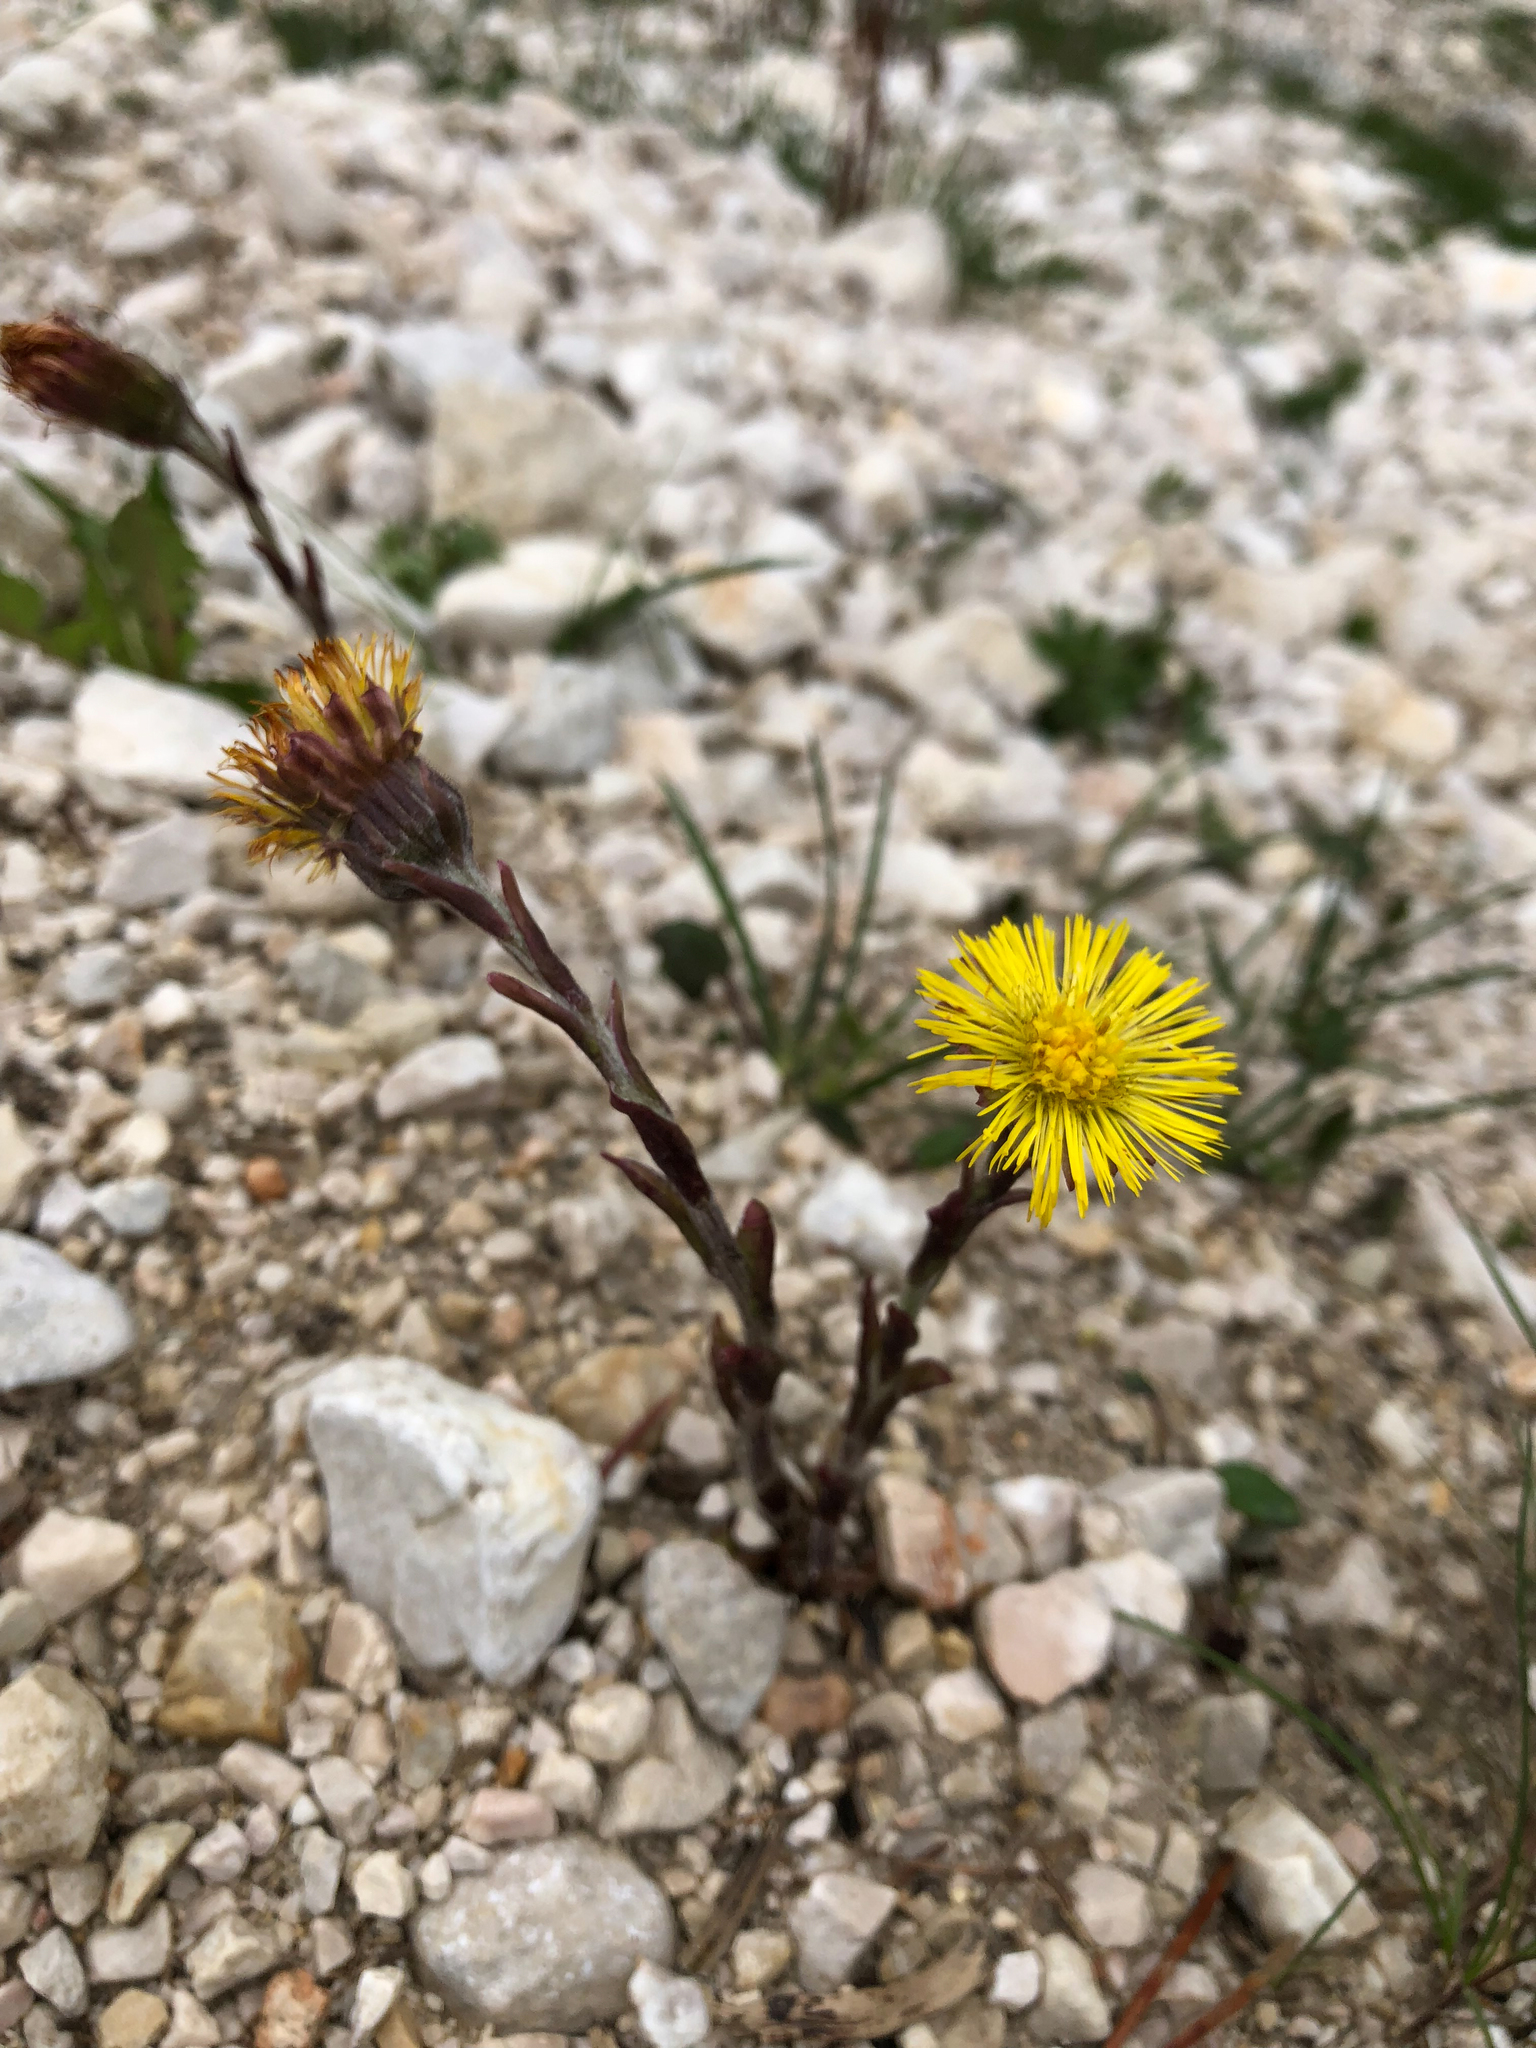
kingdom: Plantae
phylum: Tracheophyta
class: Magnoliopsida
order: Asterales
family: Asteraceae
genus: Tussilago
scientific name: Tussilago farfara
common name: Coltsfoot
